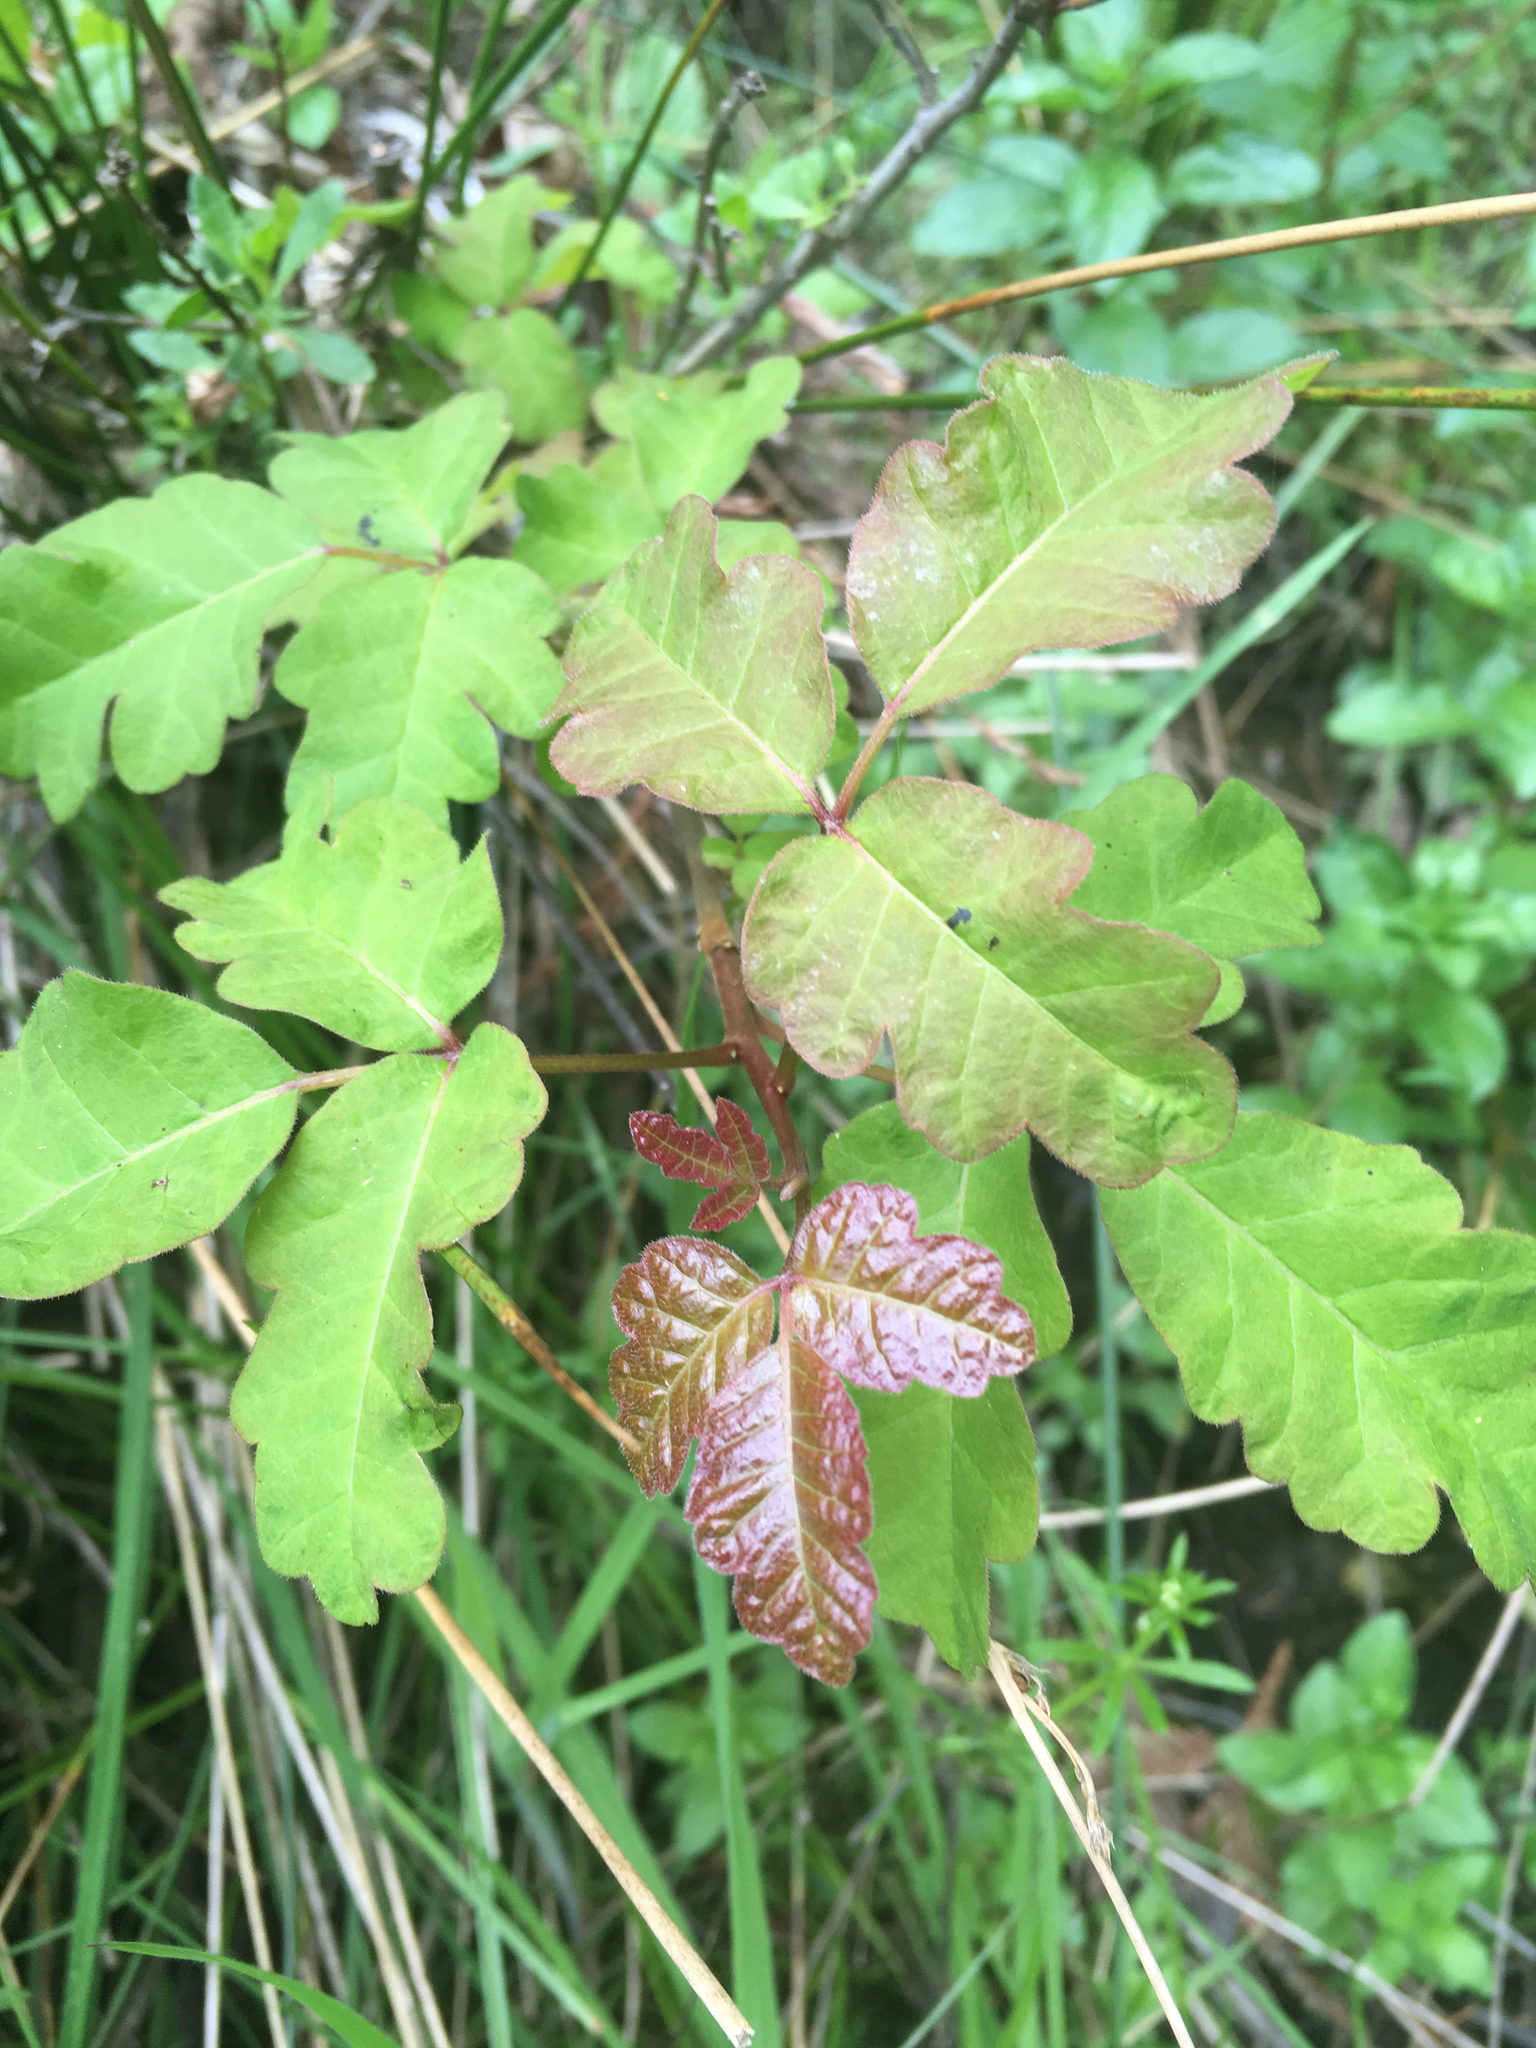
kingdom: Plantae
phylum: Tracheophyta
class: Magnoliopsida
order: Sapindales
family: Anacardiaceae
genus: Toxicodendron
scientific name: Toxicodendron diversilobum
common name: Pacific poison-oak
